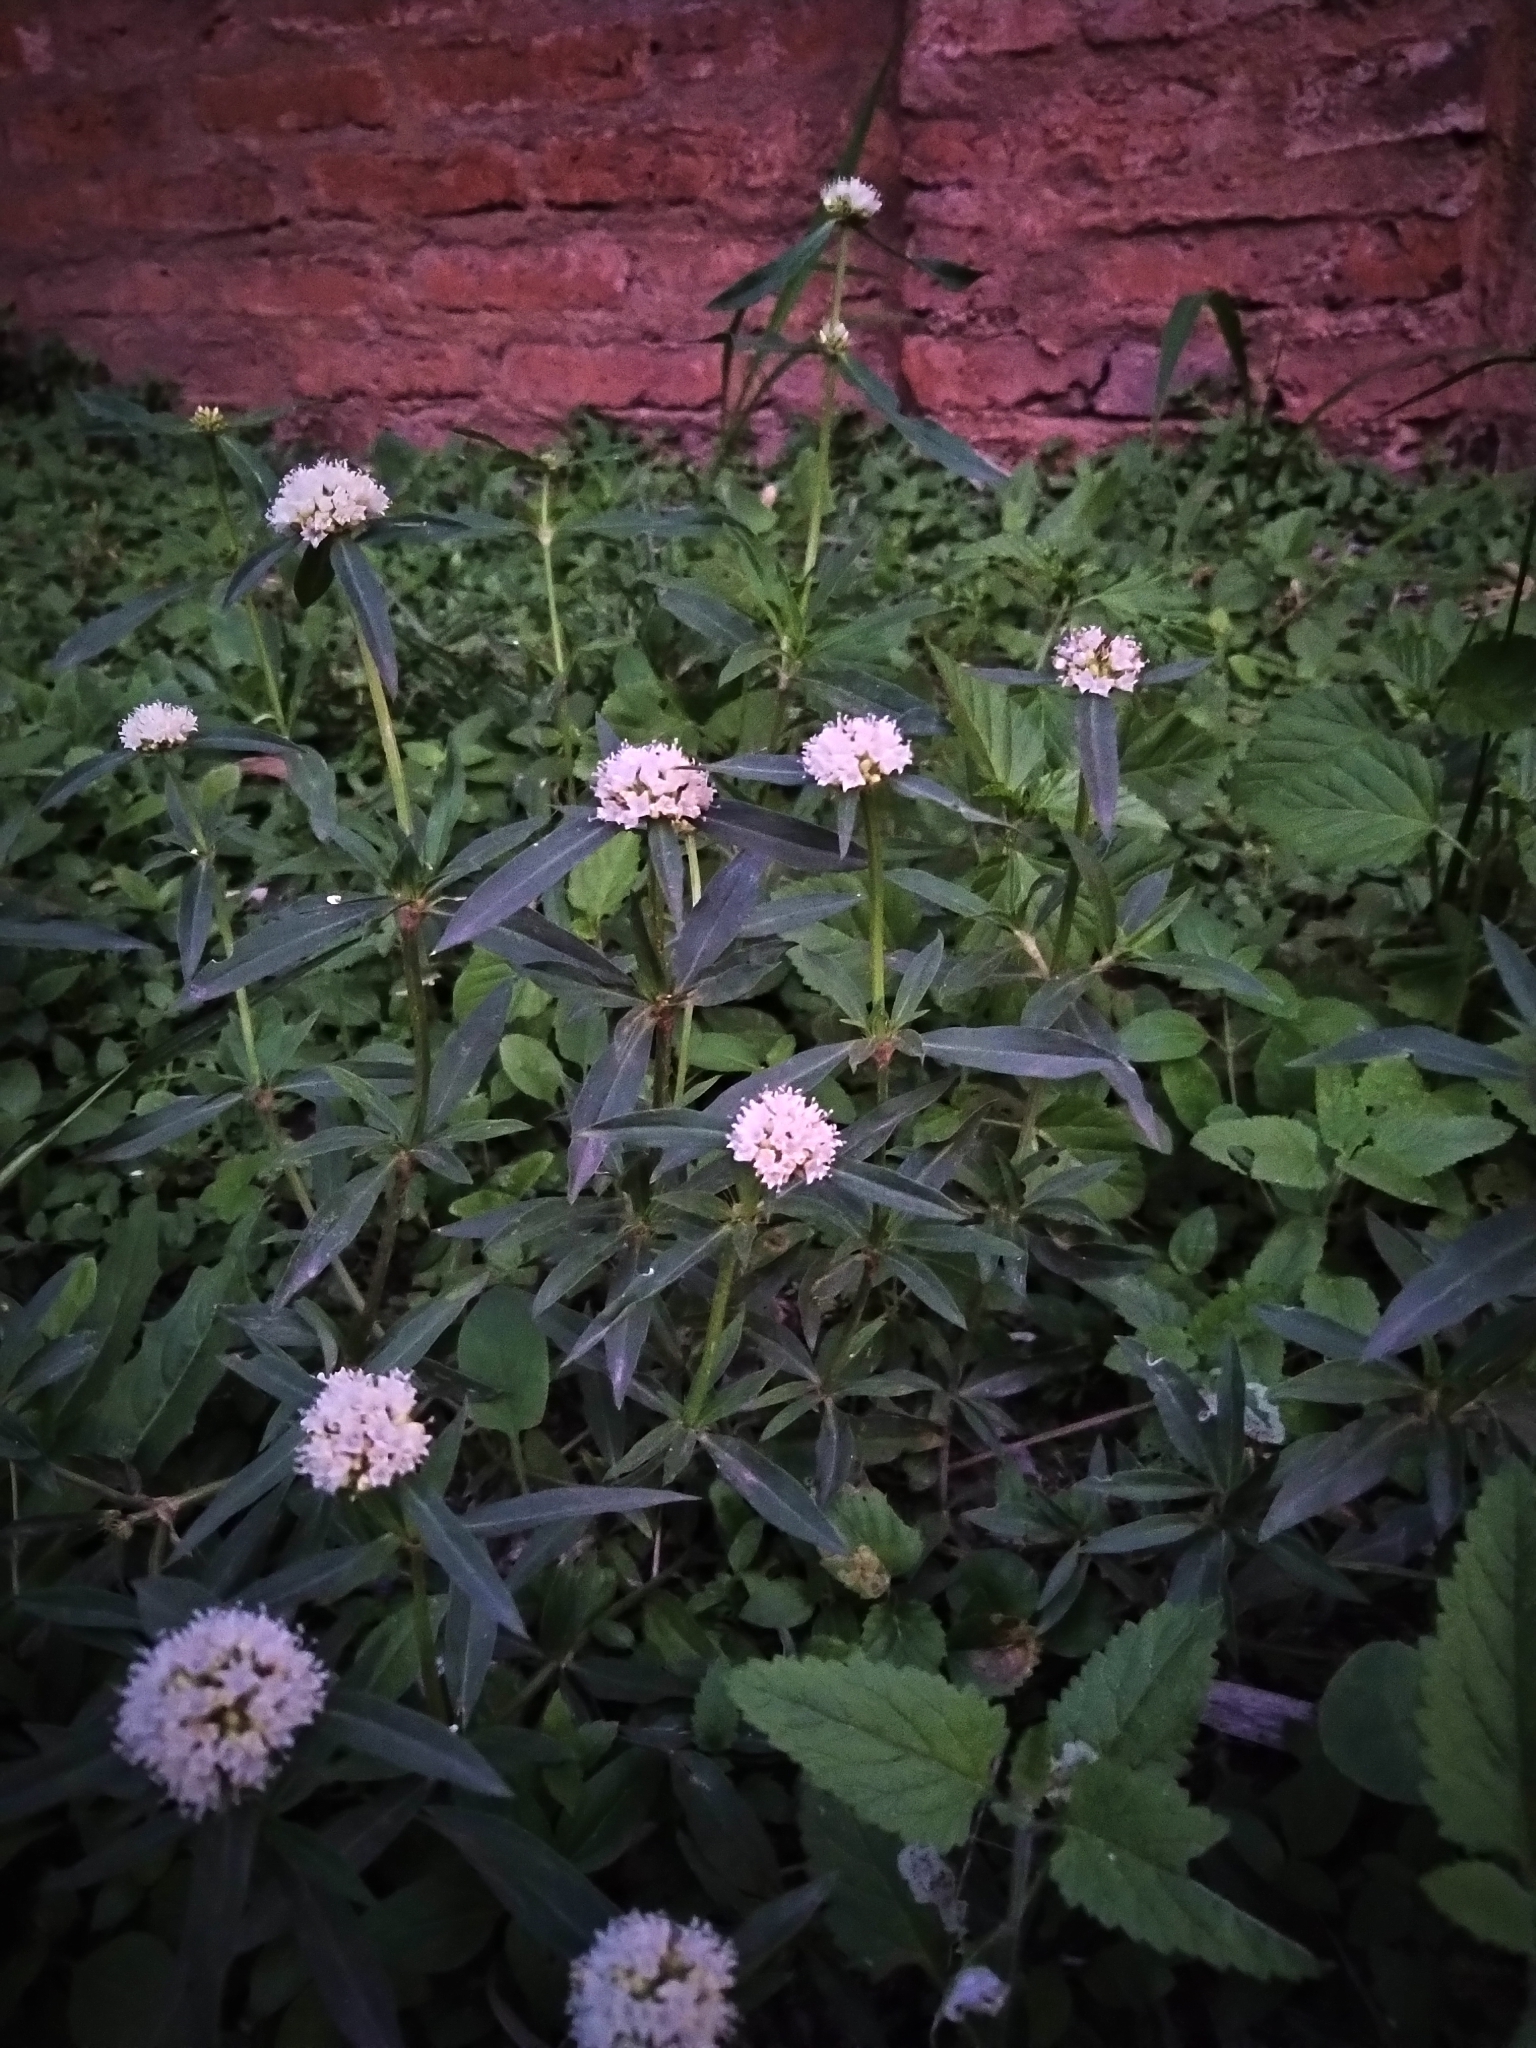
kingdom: Plantae
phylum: Tracheophyta
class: Magnoliopsida
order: Gentianales
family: Rubiaceae
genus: Spermacoce
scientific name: Spermacoce densiflora
